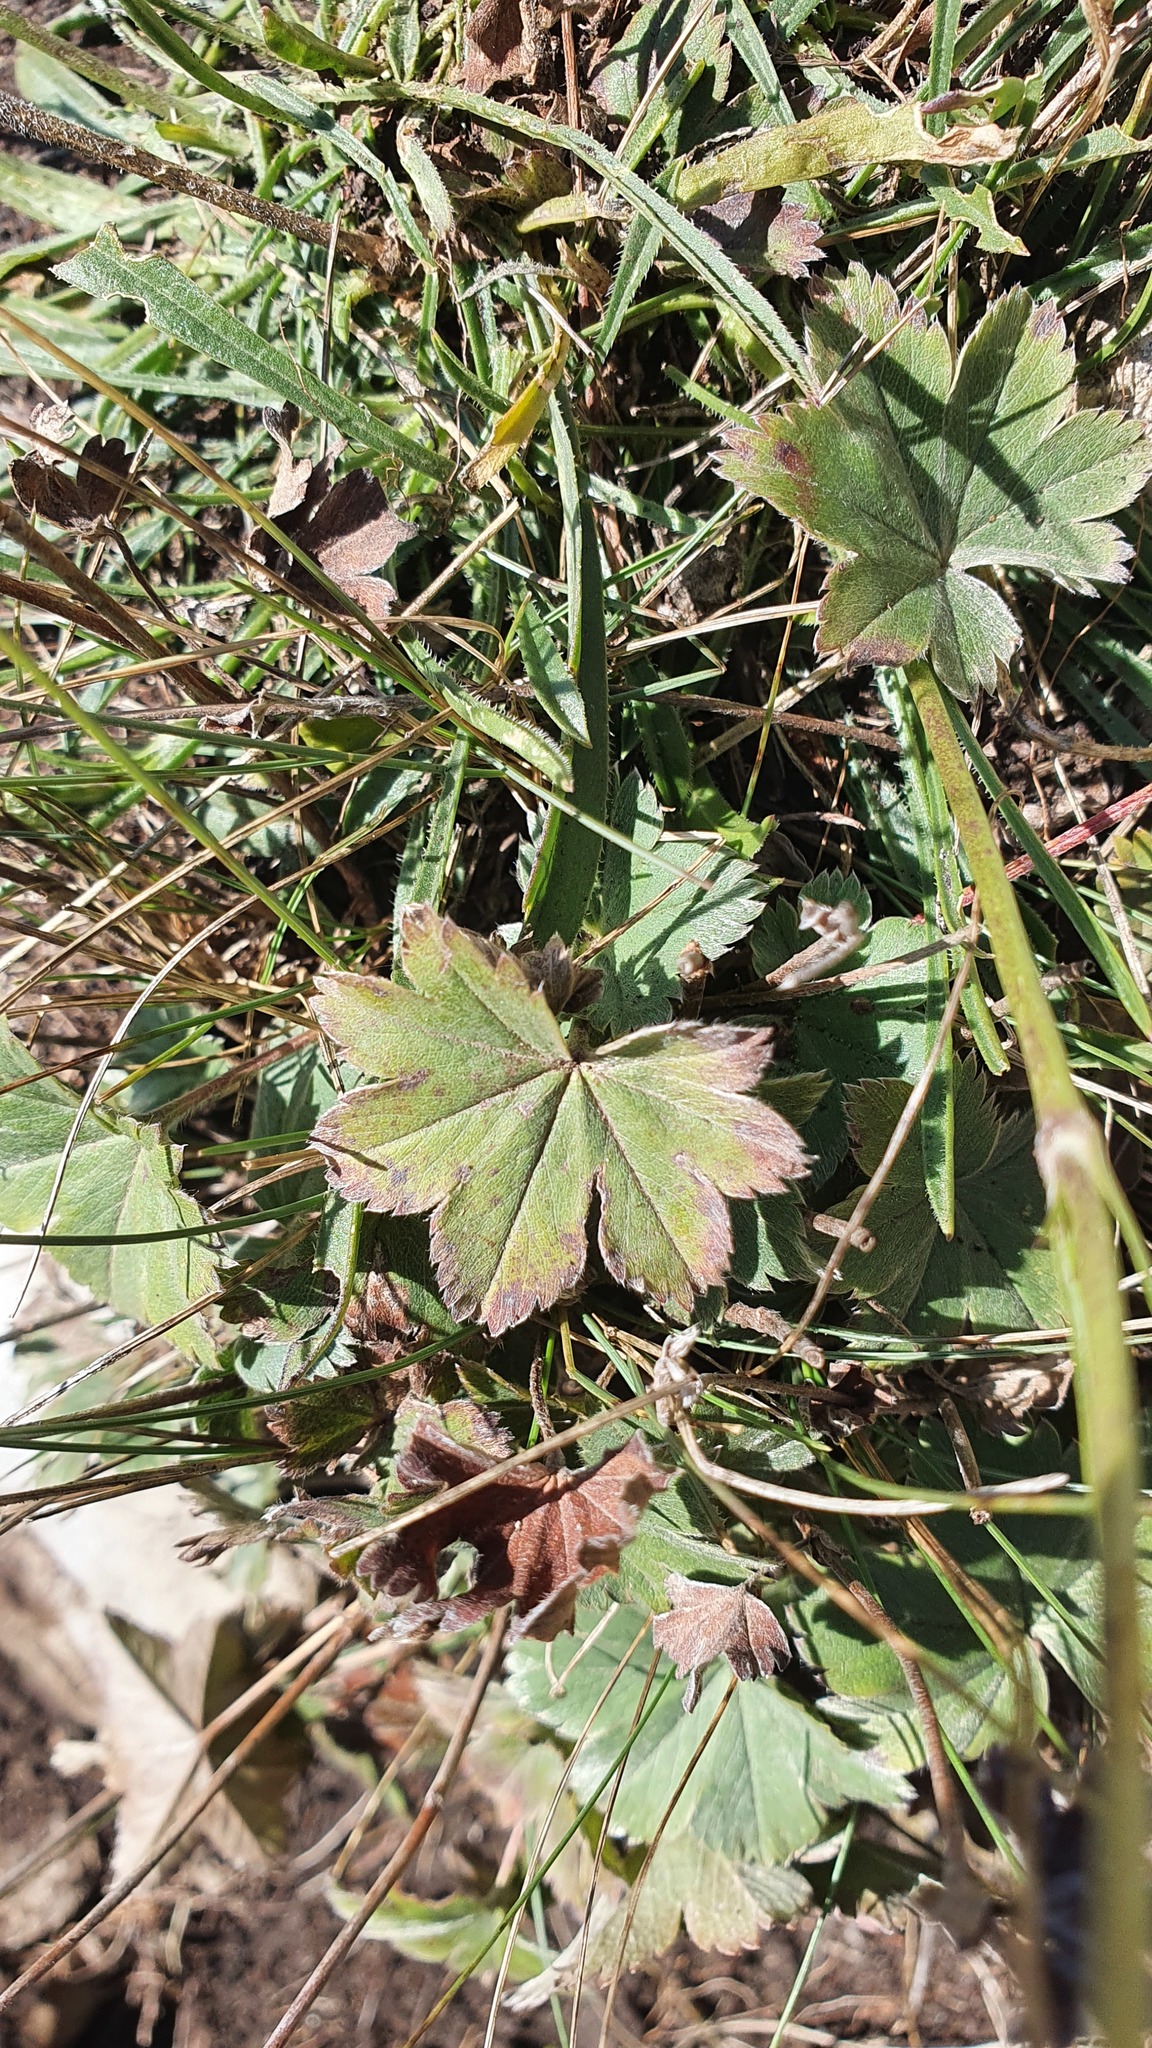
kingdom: Plantae
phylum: Tracheophyta
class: Magnoliopsida
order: Rosales
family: Rosaceae
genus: Alchemilla
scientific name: Alchemilla sericata
